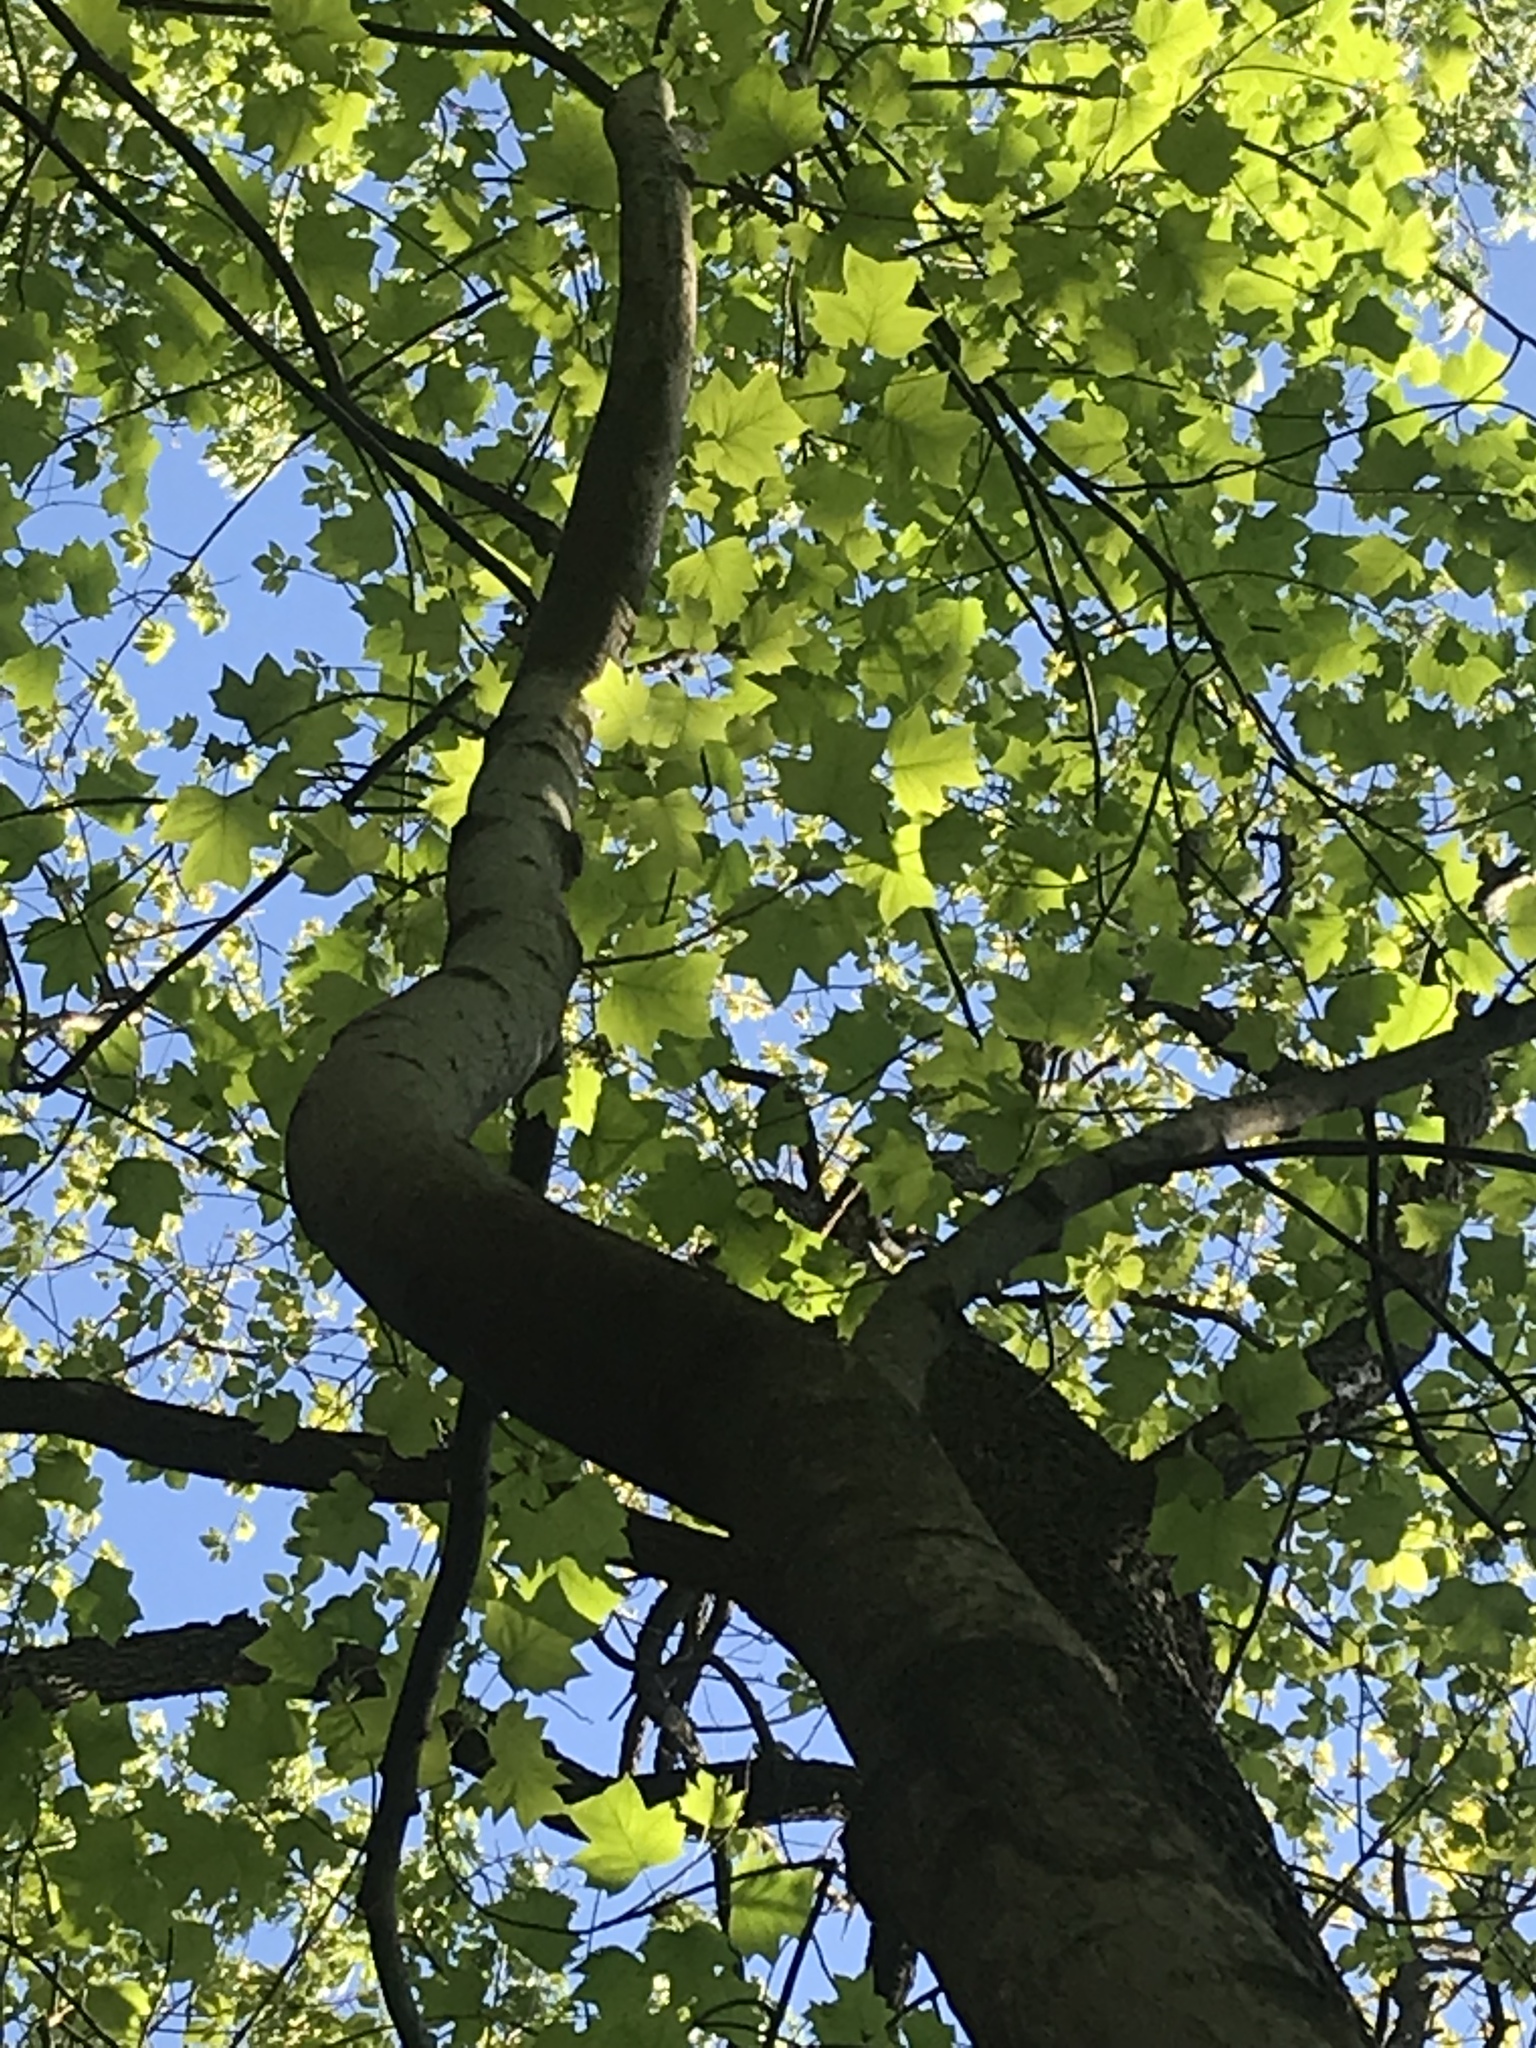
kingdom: Plantae
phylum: Tracheophyta
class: Magnoliopsida
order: Magnoliales
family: Magnoliaceae
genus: Liriodendron
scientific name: Liriodendron tulipifera
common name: Tulip tree
